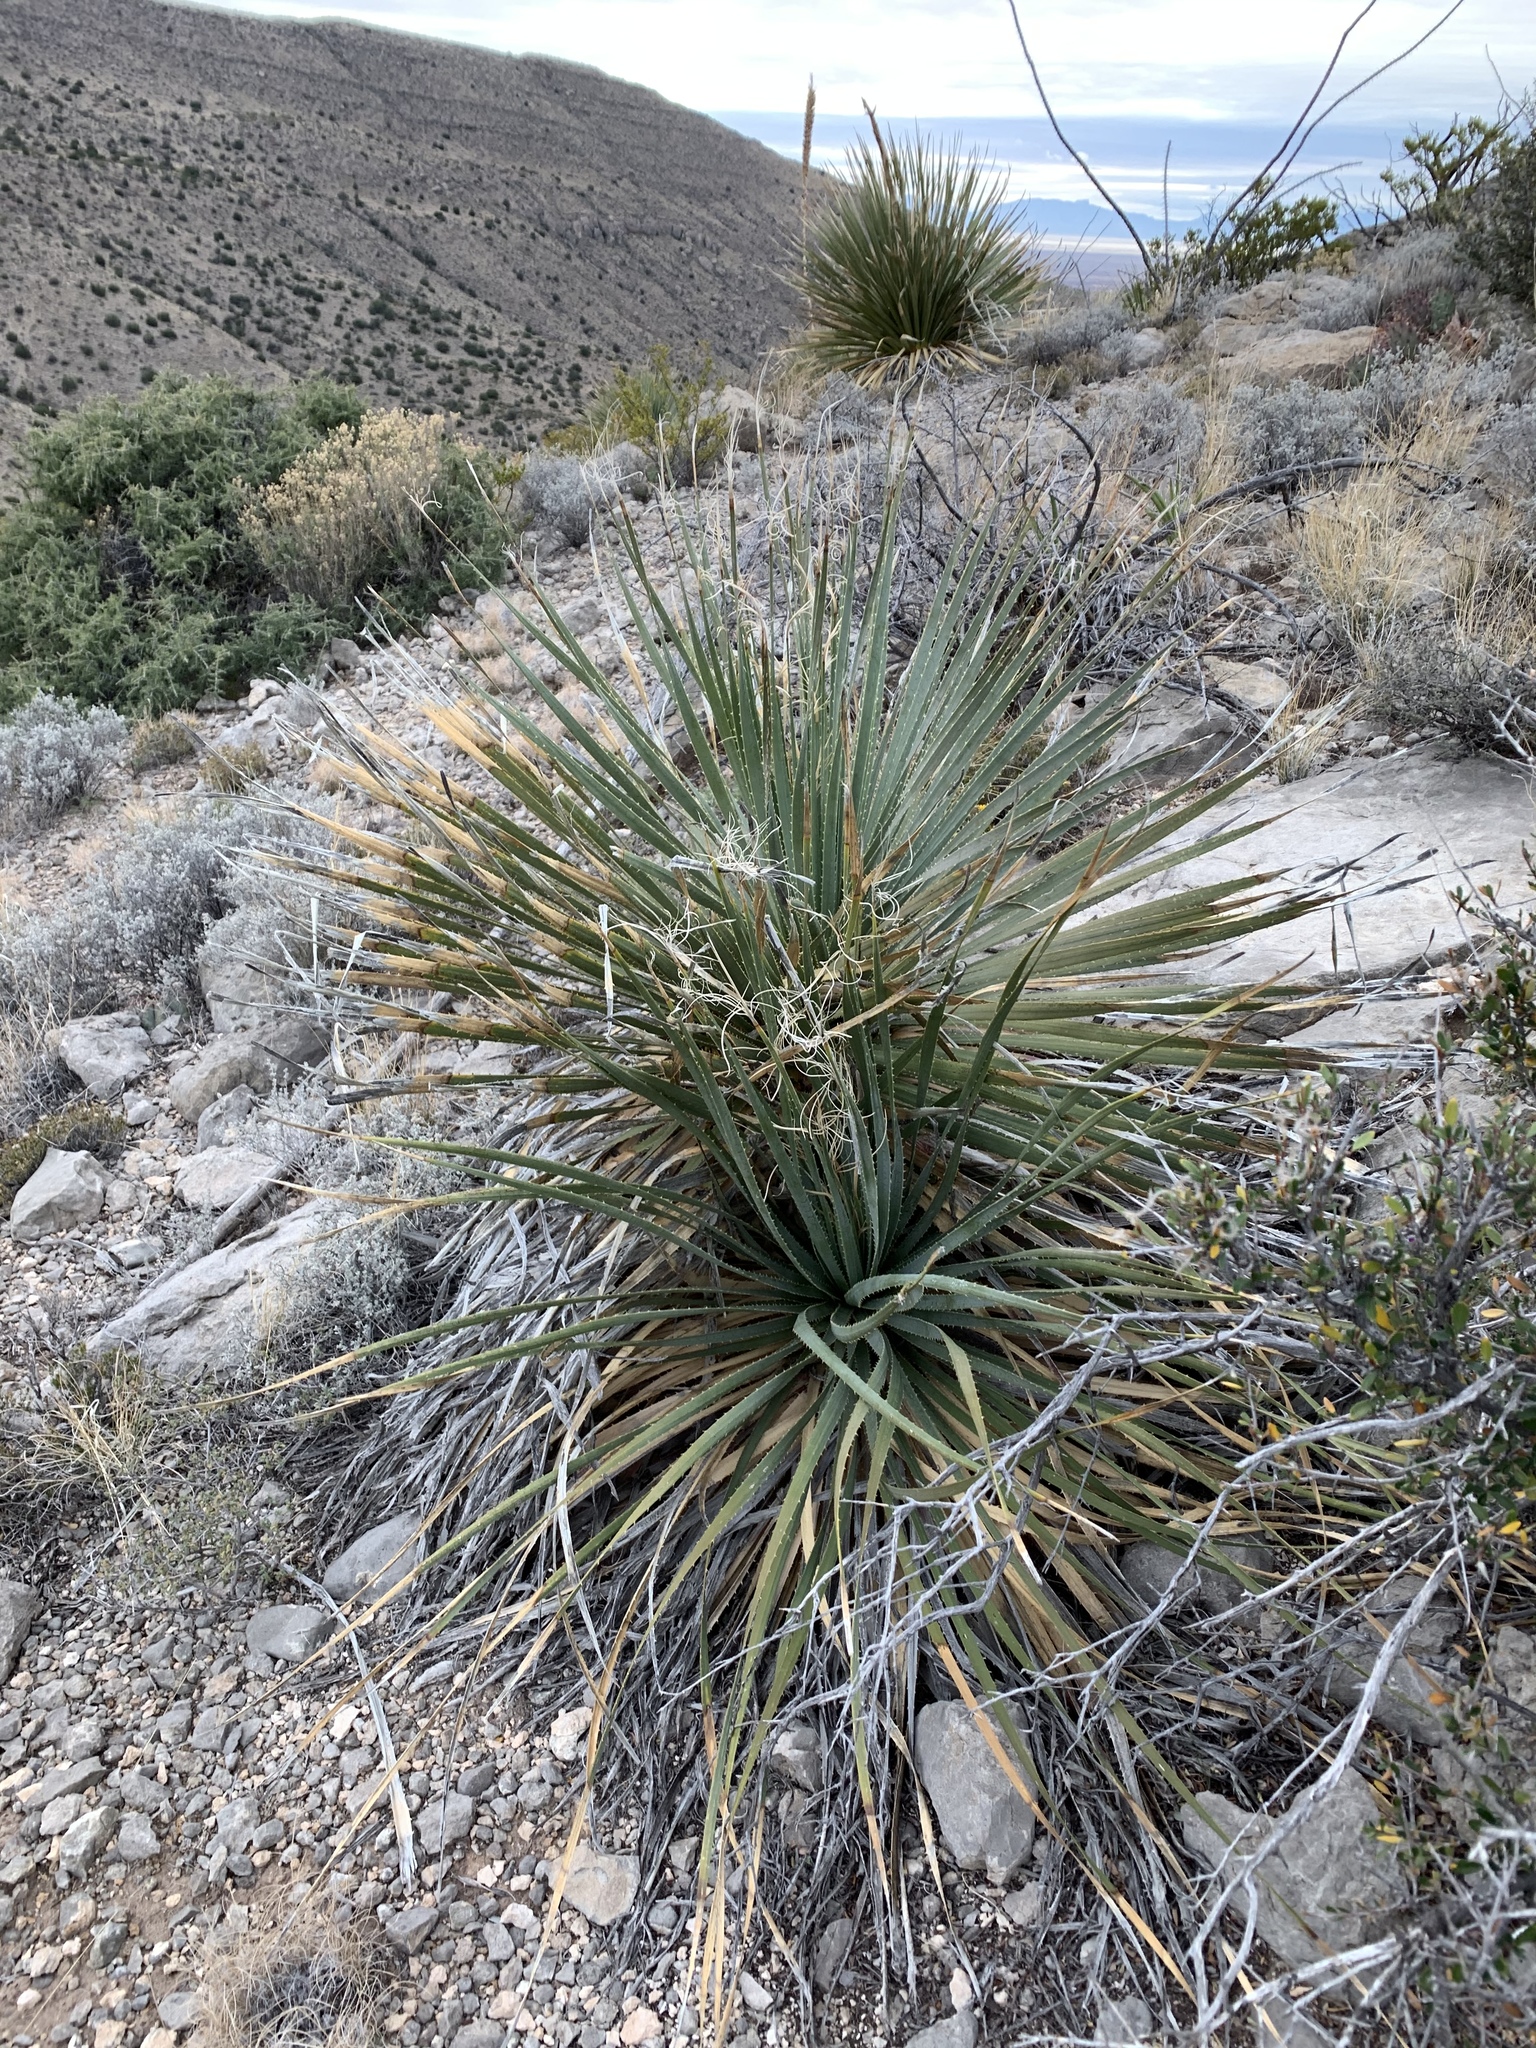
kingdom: Plantae
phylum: Tracheophyta
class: Liliopsida
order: Asparagales
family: Asparagaceae
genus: Dasylirion
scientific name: Dasylirion wheeleri
